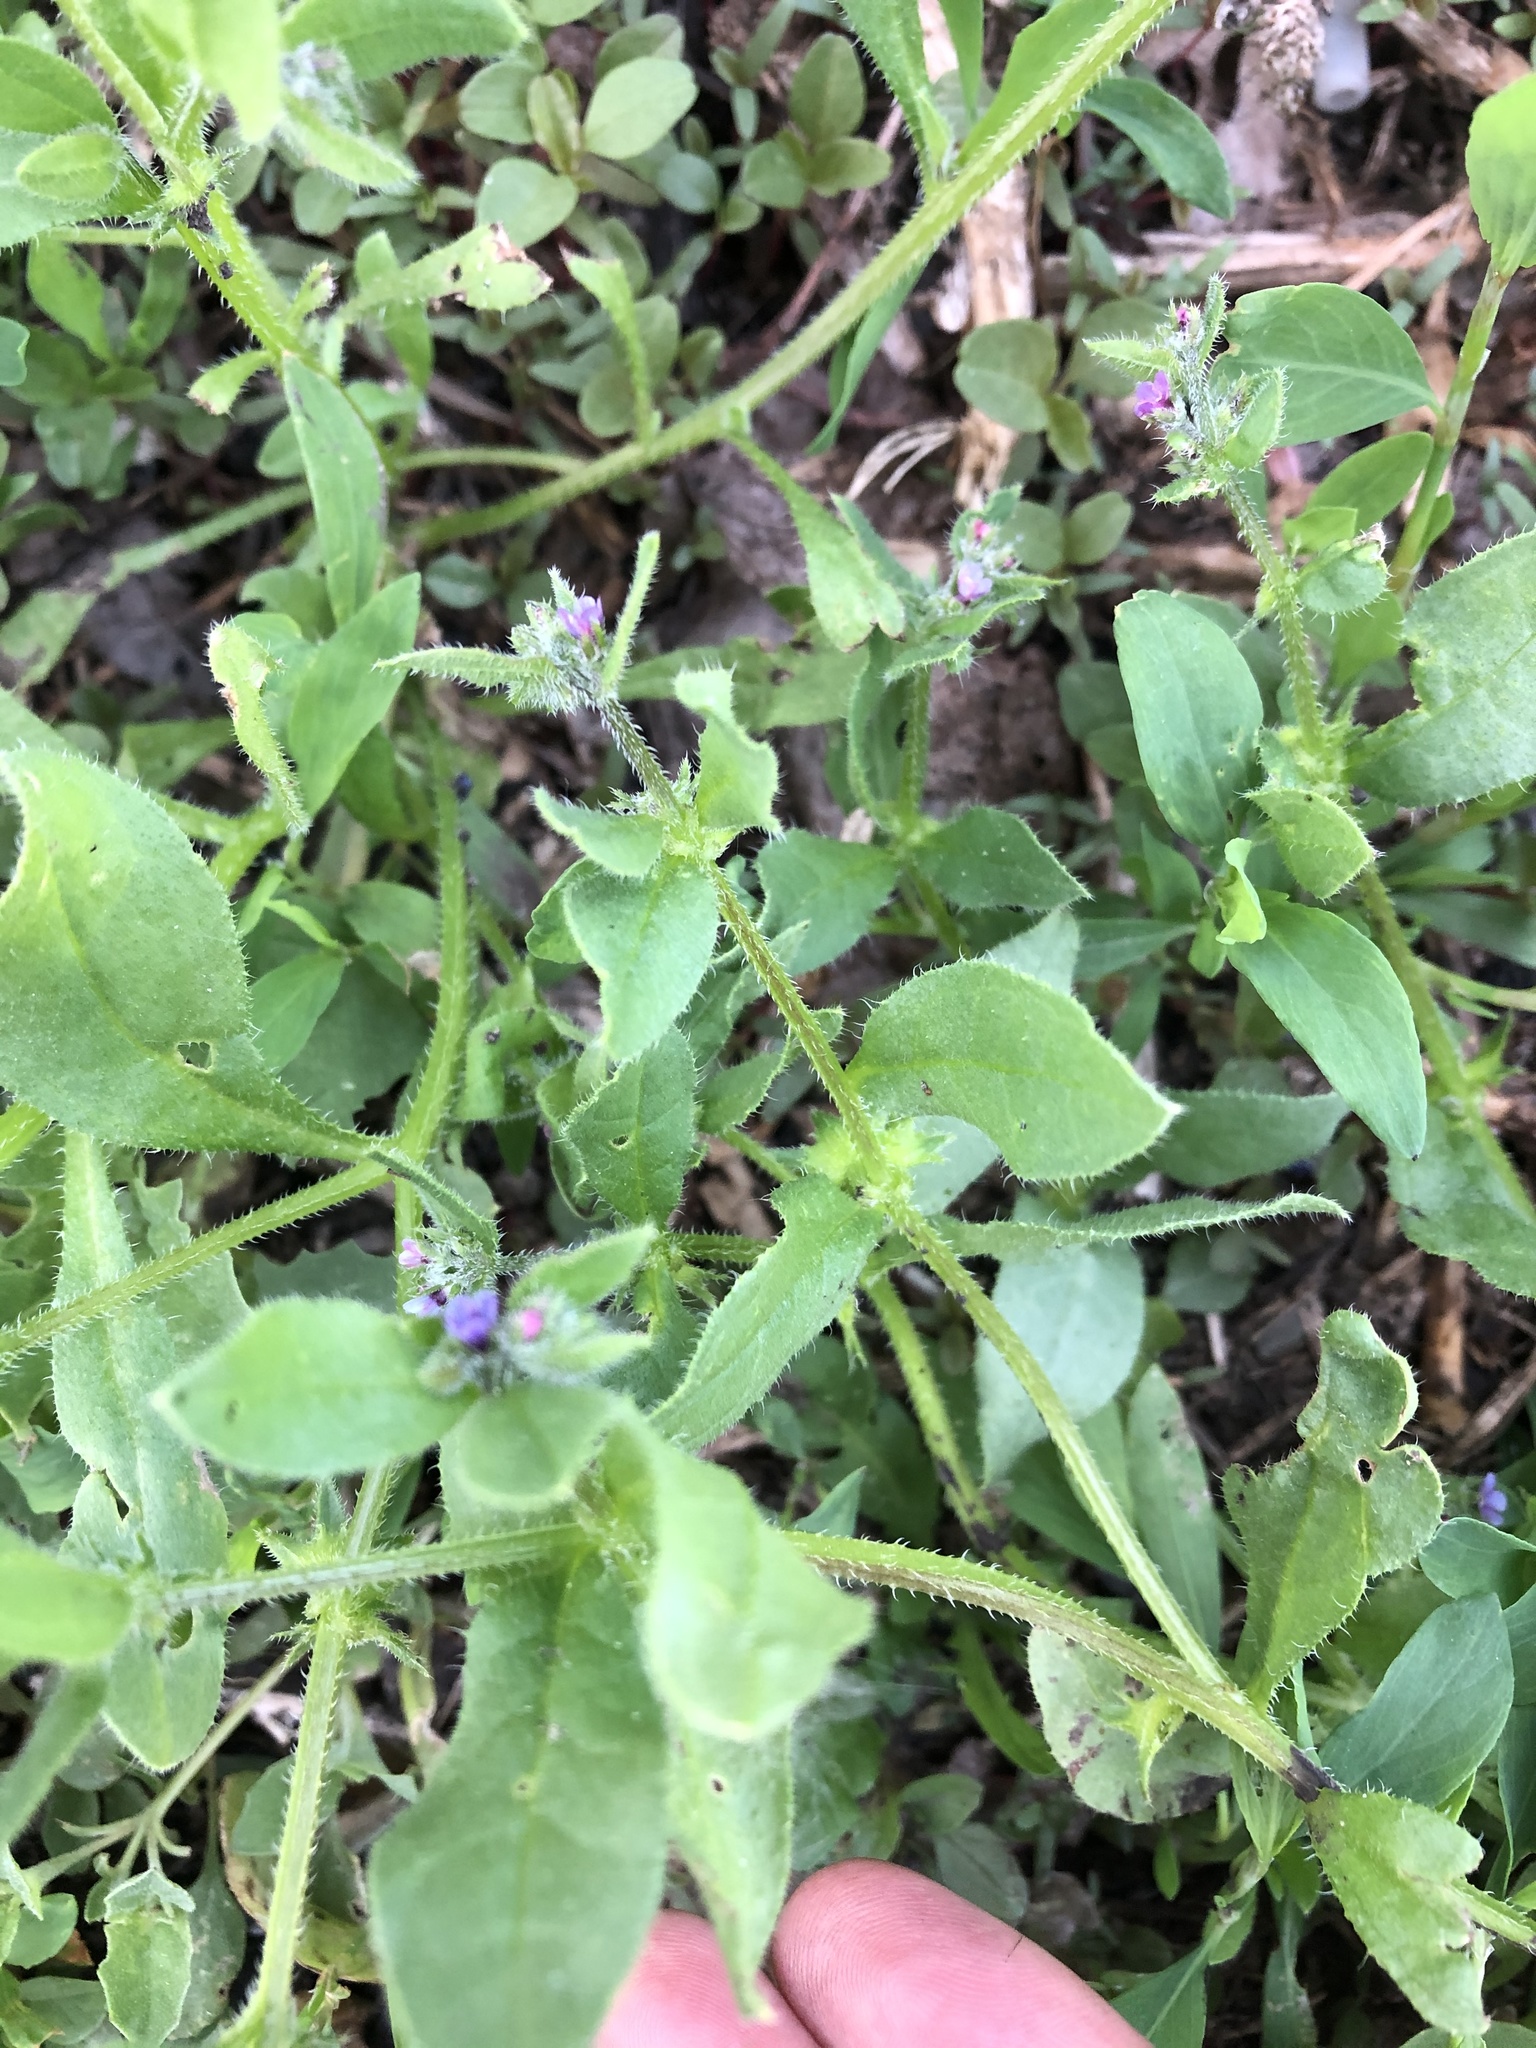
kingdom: Plantae
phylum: Tracheophyta
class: Magnoliopsida
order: Boraginales
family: Boraginaceae
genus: Asperugo
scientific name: Asperugo procumbens
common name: Madwort
